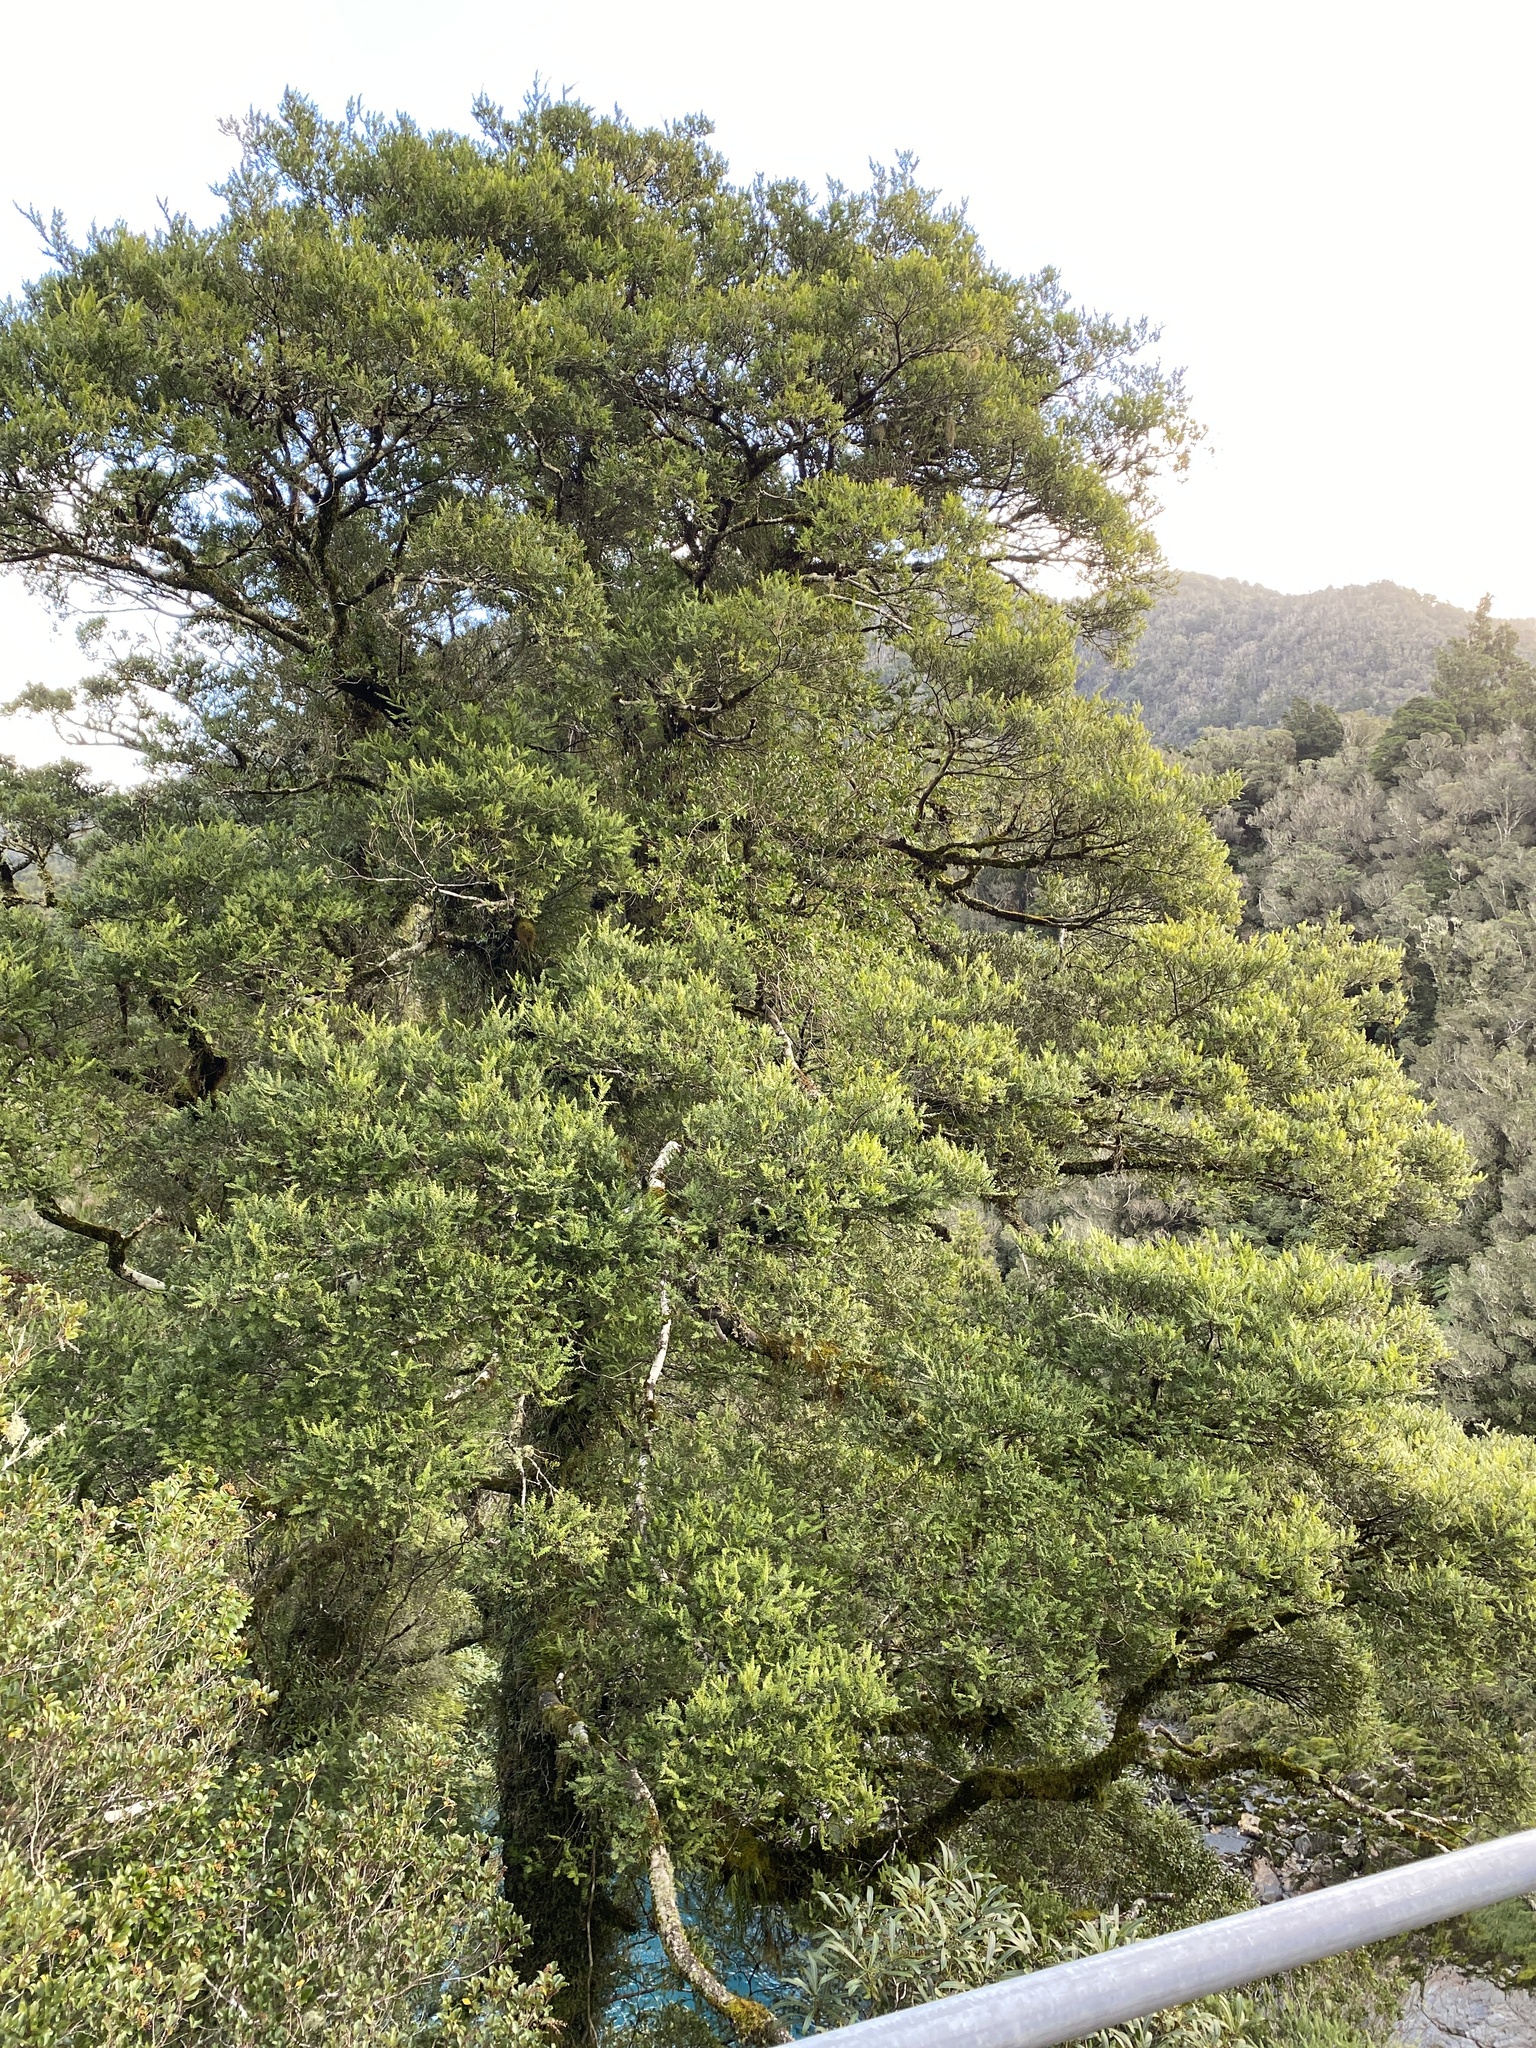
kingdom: Plantae
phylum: Tracheophyta
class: Pinopsida
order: Pinales
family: Podocarpaceae
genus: Prumnopitys
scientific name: Prumnopitys ferruginea
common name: Brown pine
